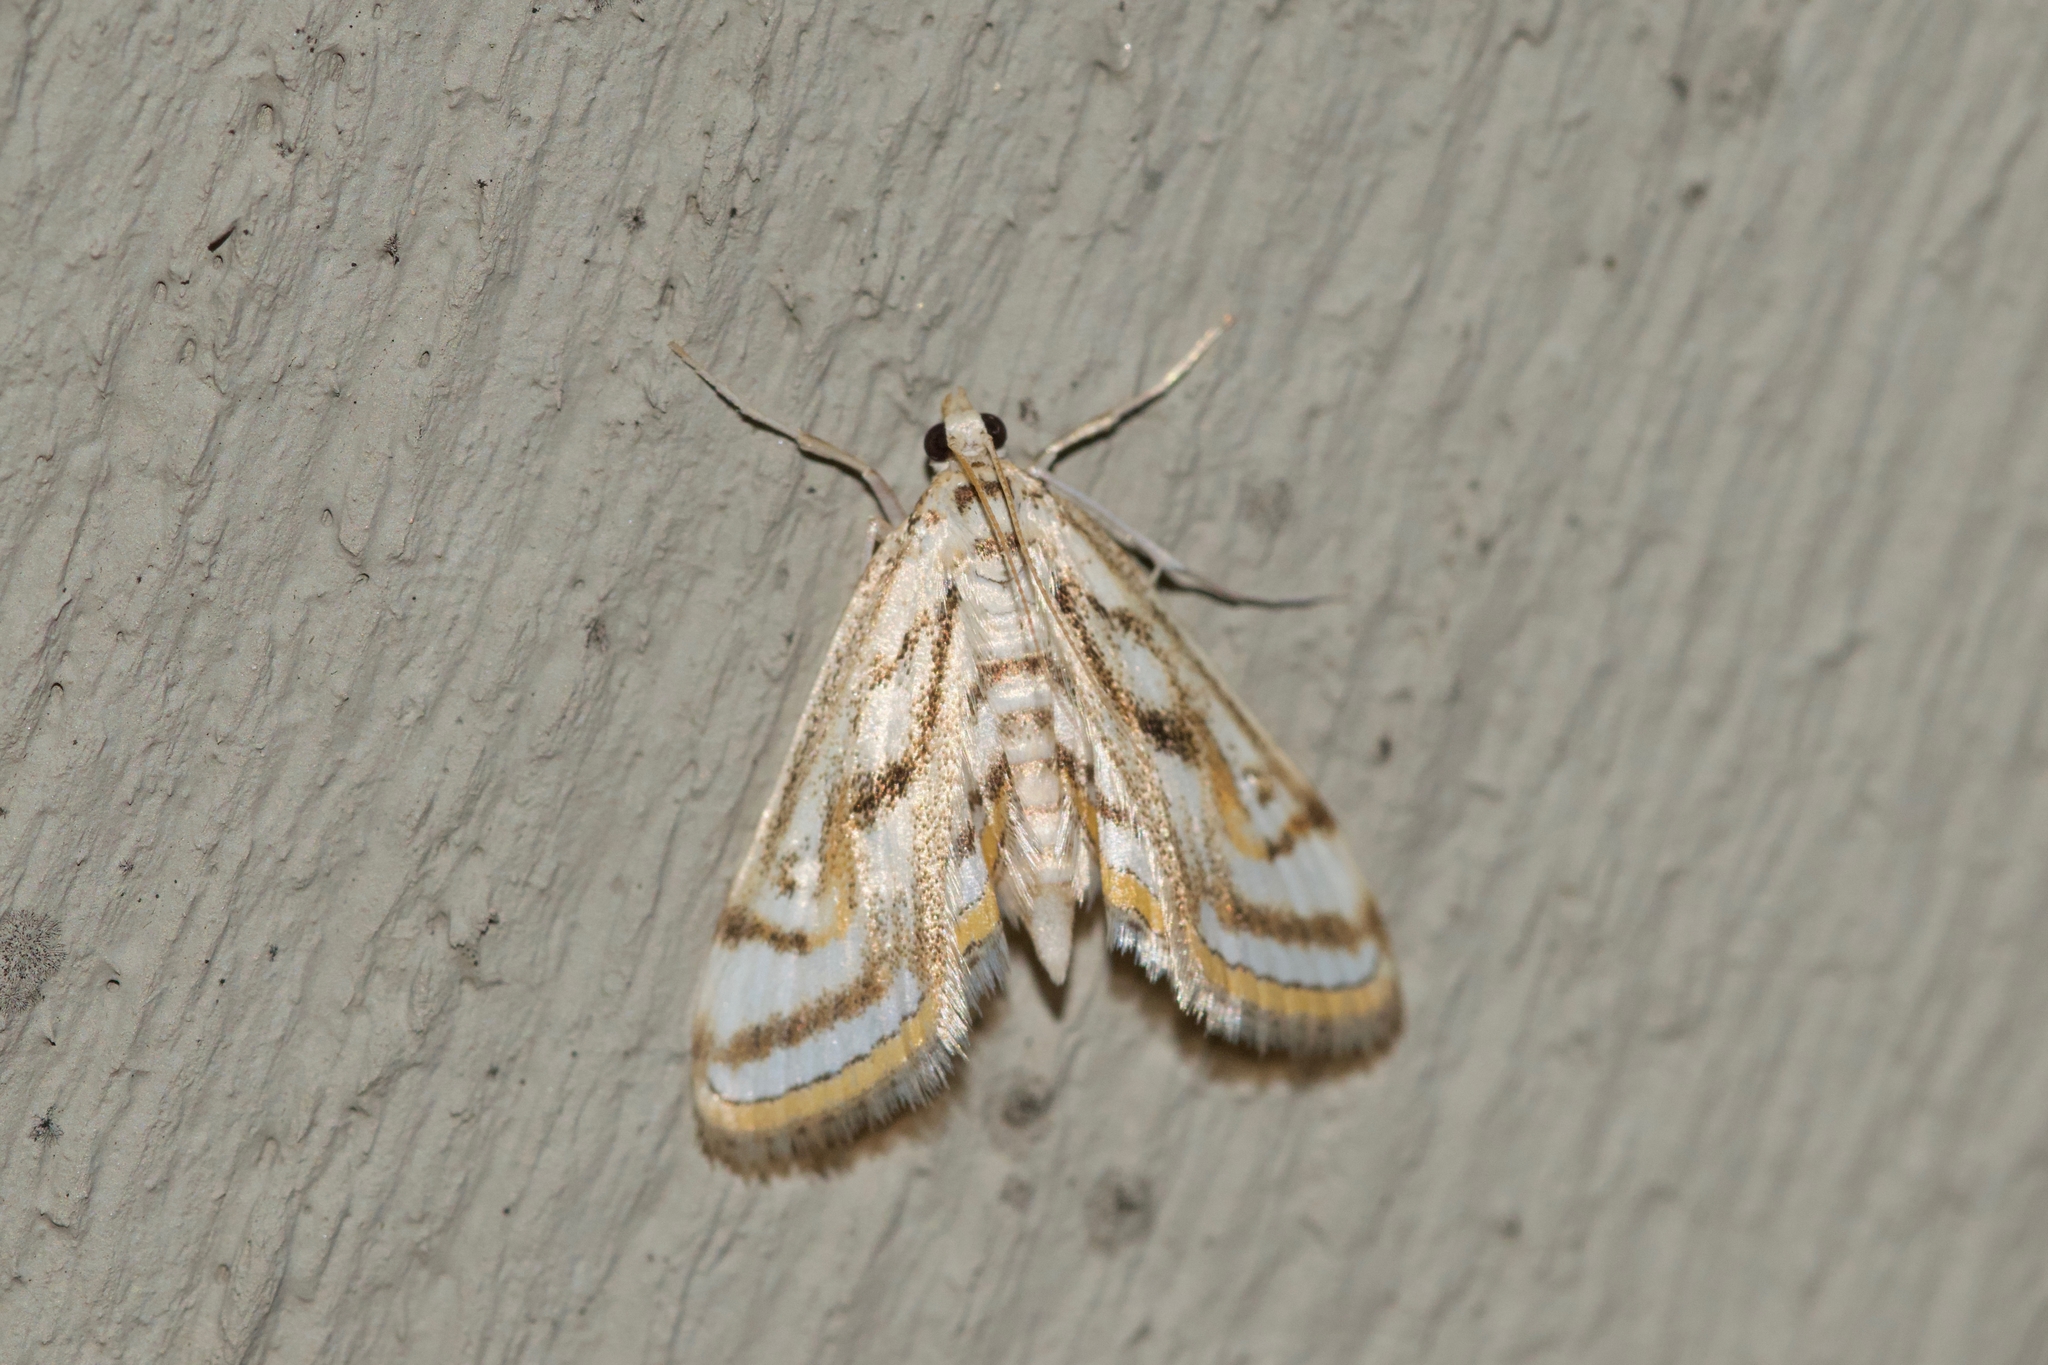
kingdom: Animalia
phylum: Arthropoda
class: Insecta
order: Lepidoptera
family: Crambidae
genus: Parapoynx
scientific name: Parapoynx badiusalis
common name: Chestnut-marked pondweed moth
